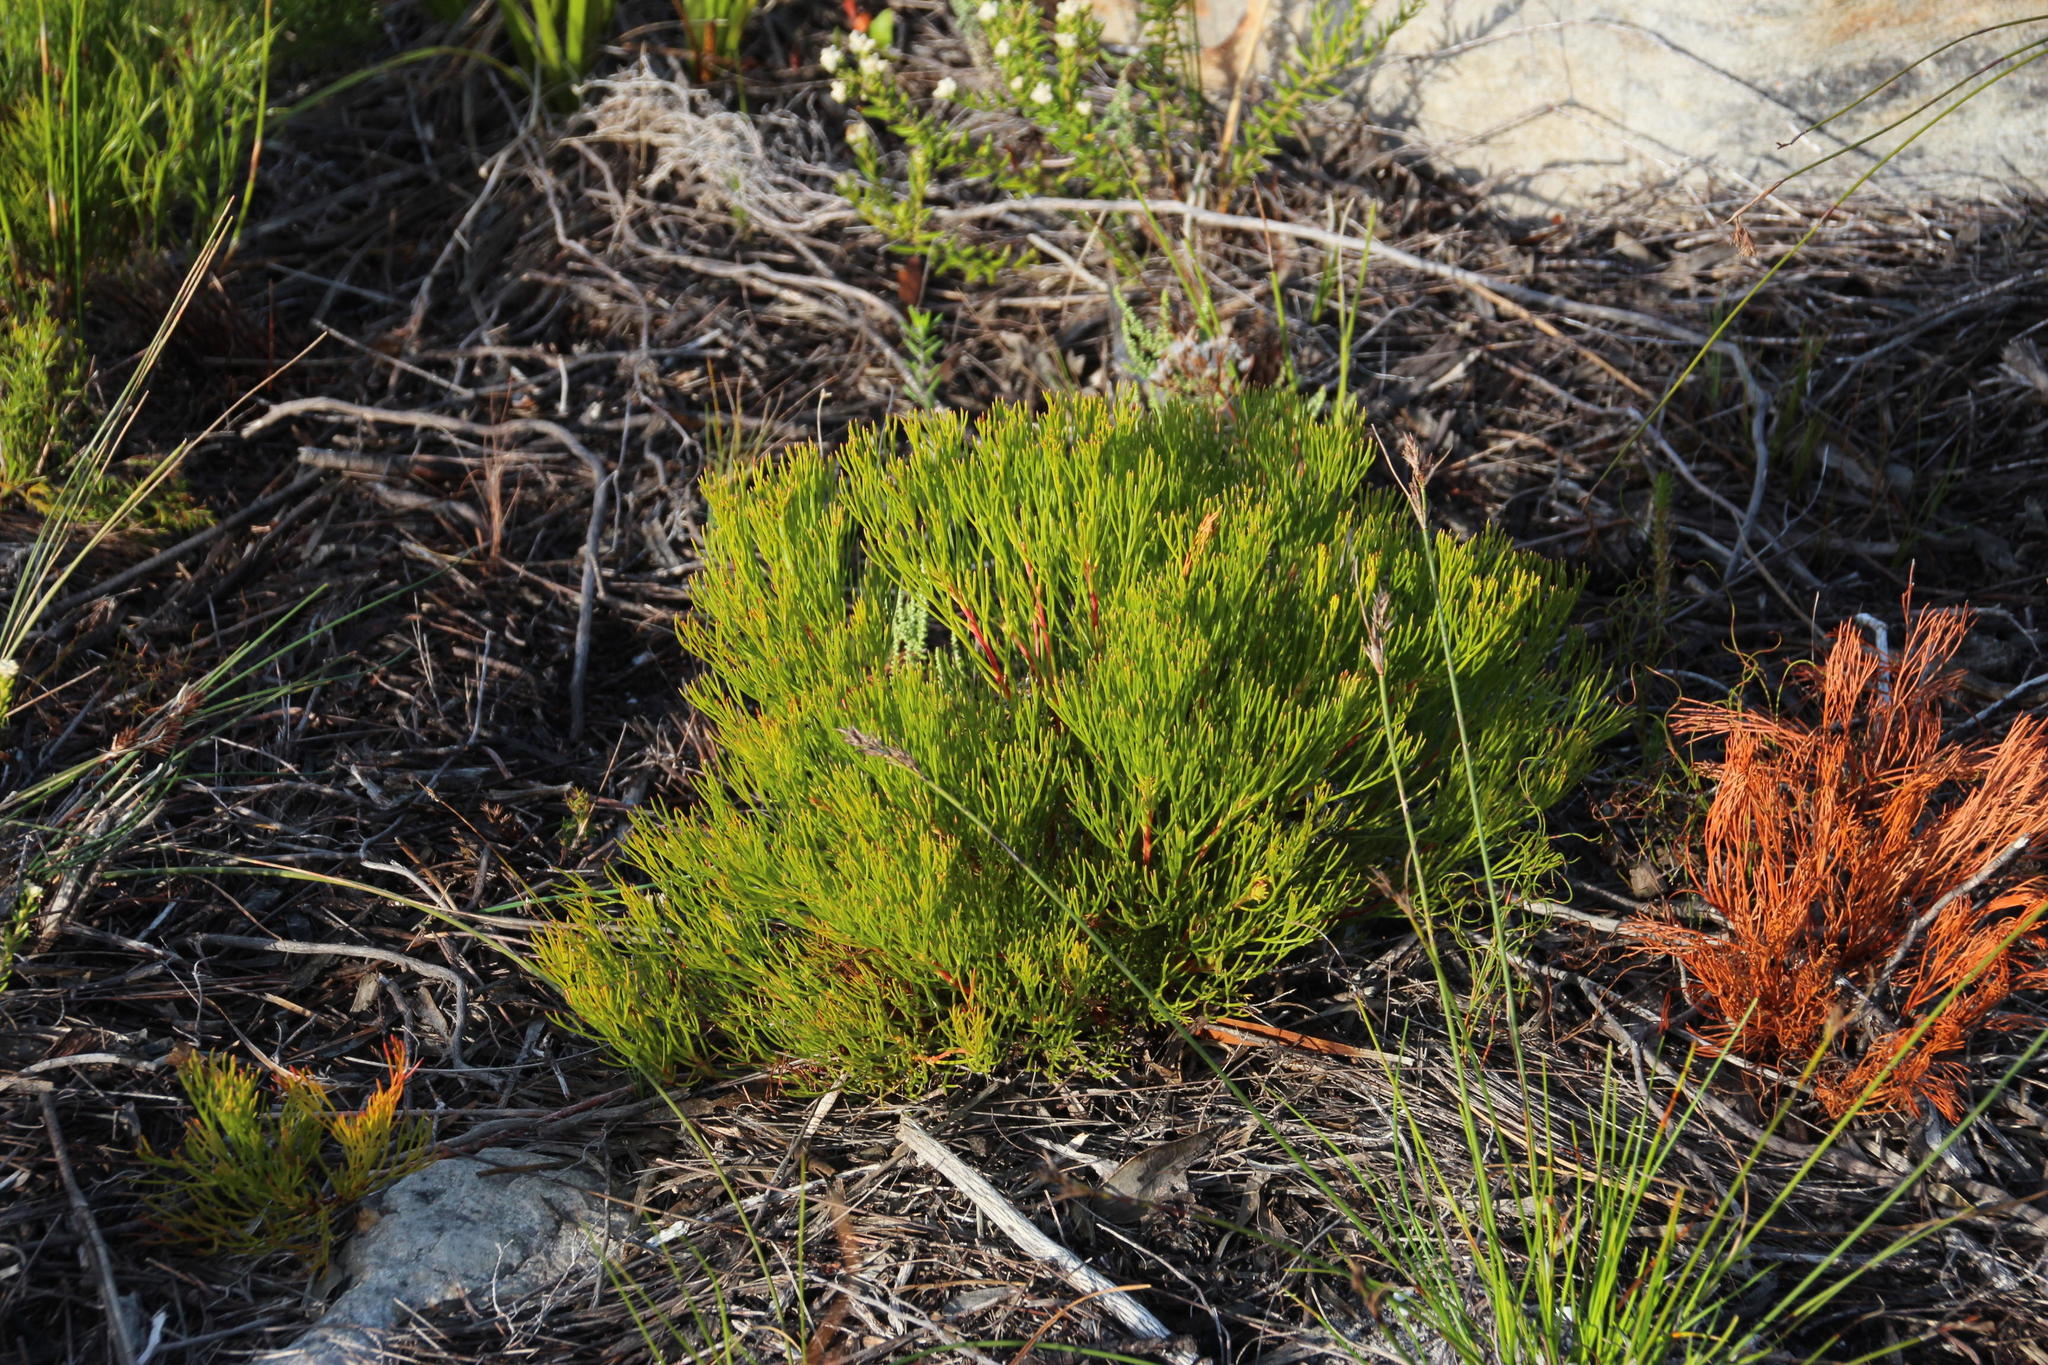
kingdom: Plantae
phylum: Tracheophyta
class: Magnoliopsida
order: Proteales
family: Proteaceae
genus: Serruria
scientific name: Serruria rubricaulis
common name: Red-stem spiderhead
